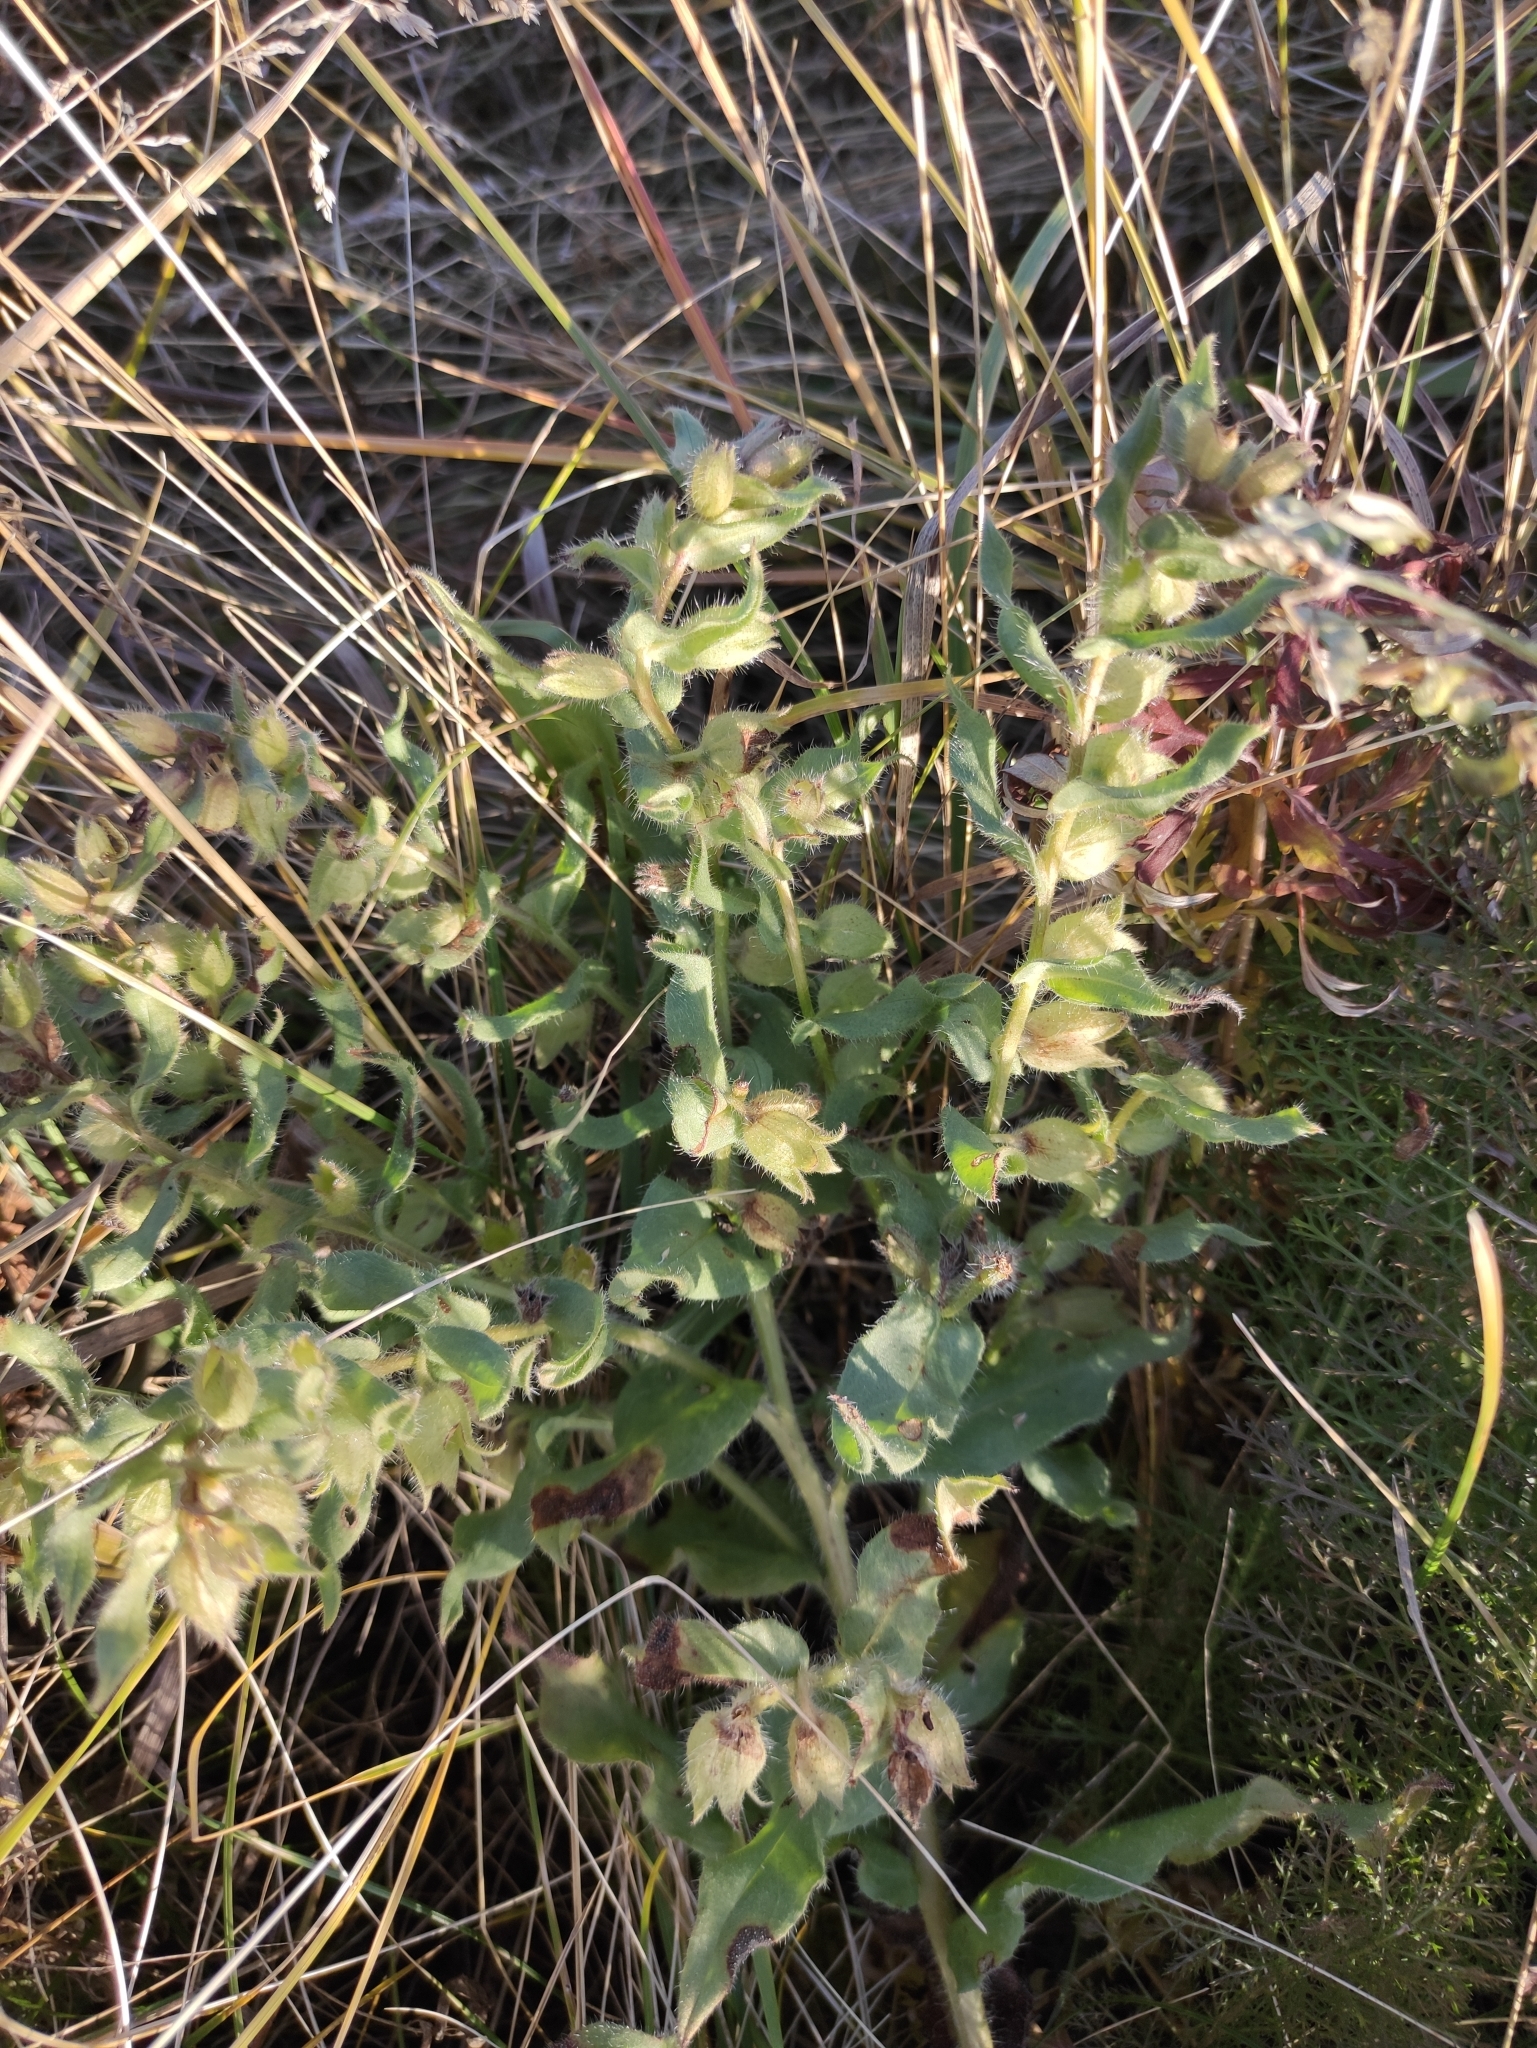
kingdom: Plantae
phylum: Tracheophyta
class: Magnoliopsida
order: Boraginales
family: Boraginaceae
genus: Nonea
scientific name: Nonea pulla
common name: Brown nonea
